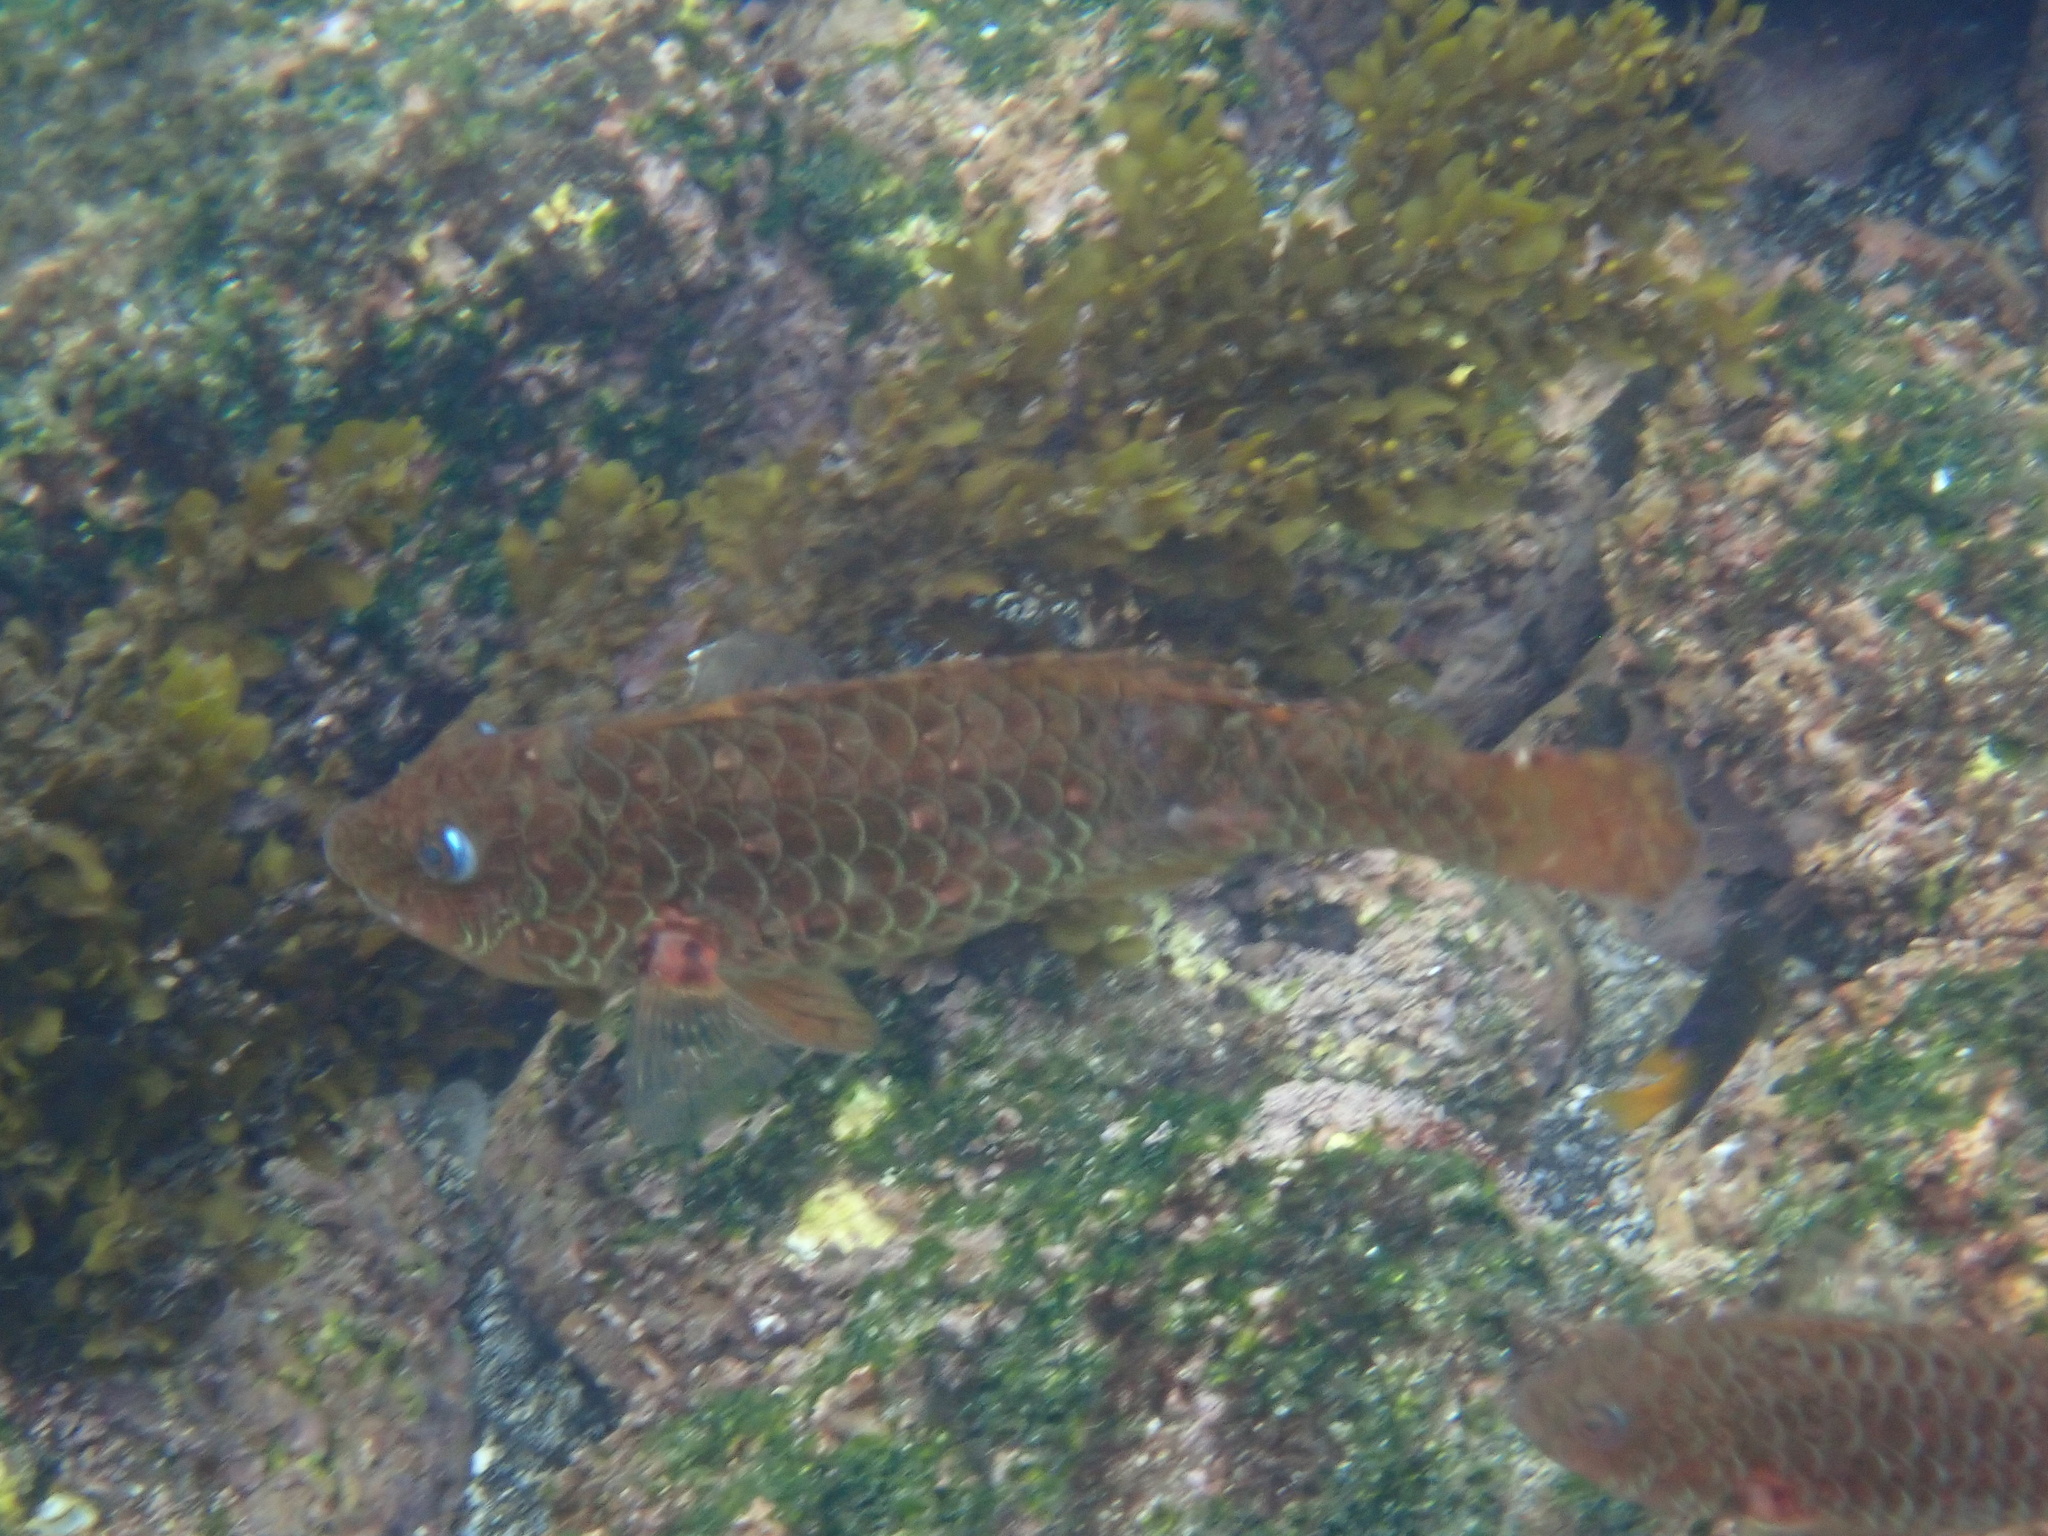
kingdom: Animalia
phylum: Chordata
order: Perciformes
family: Scaridae
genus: Nicholsina
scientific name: Nicholsina denticulata
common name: Loosetooth parrotfish
